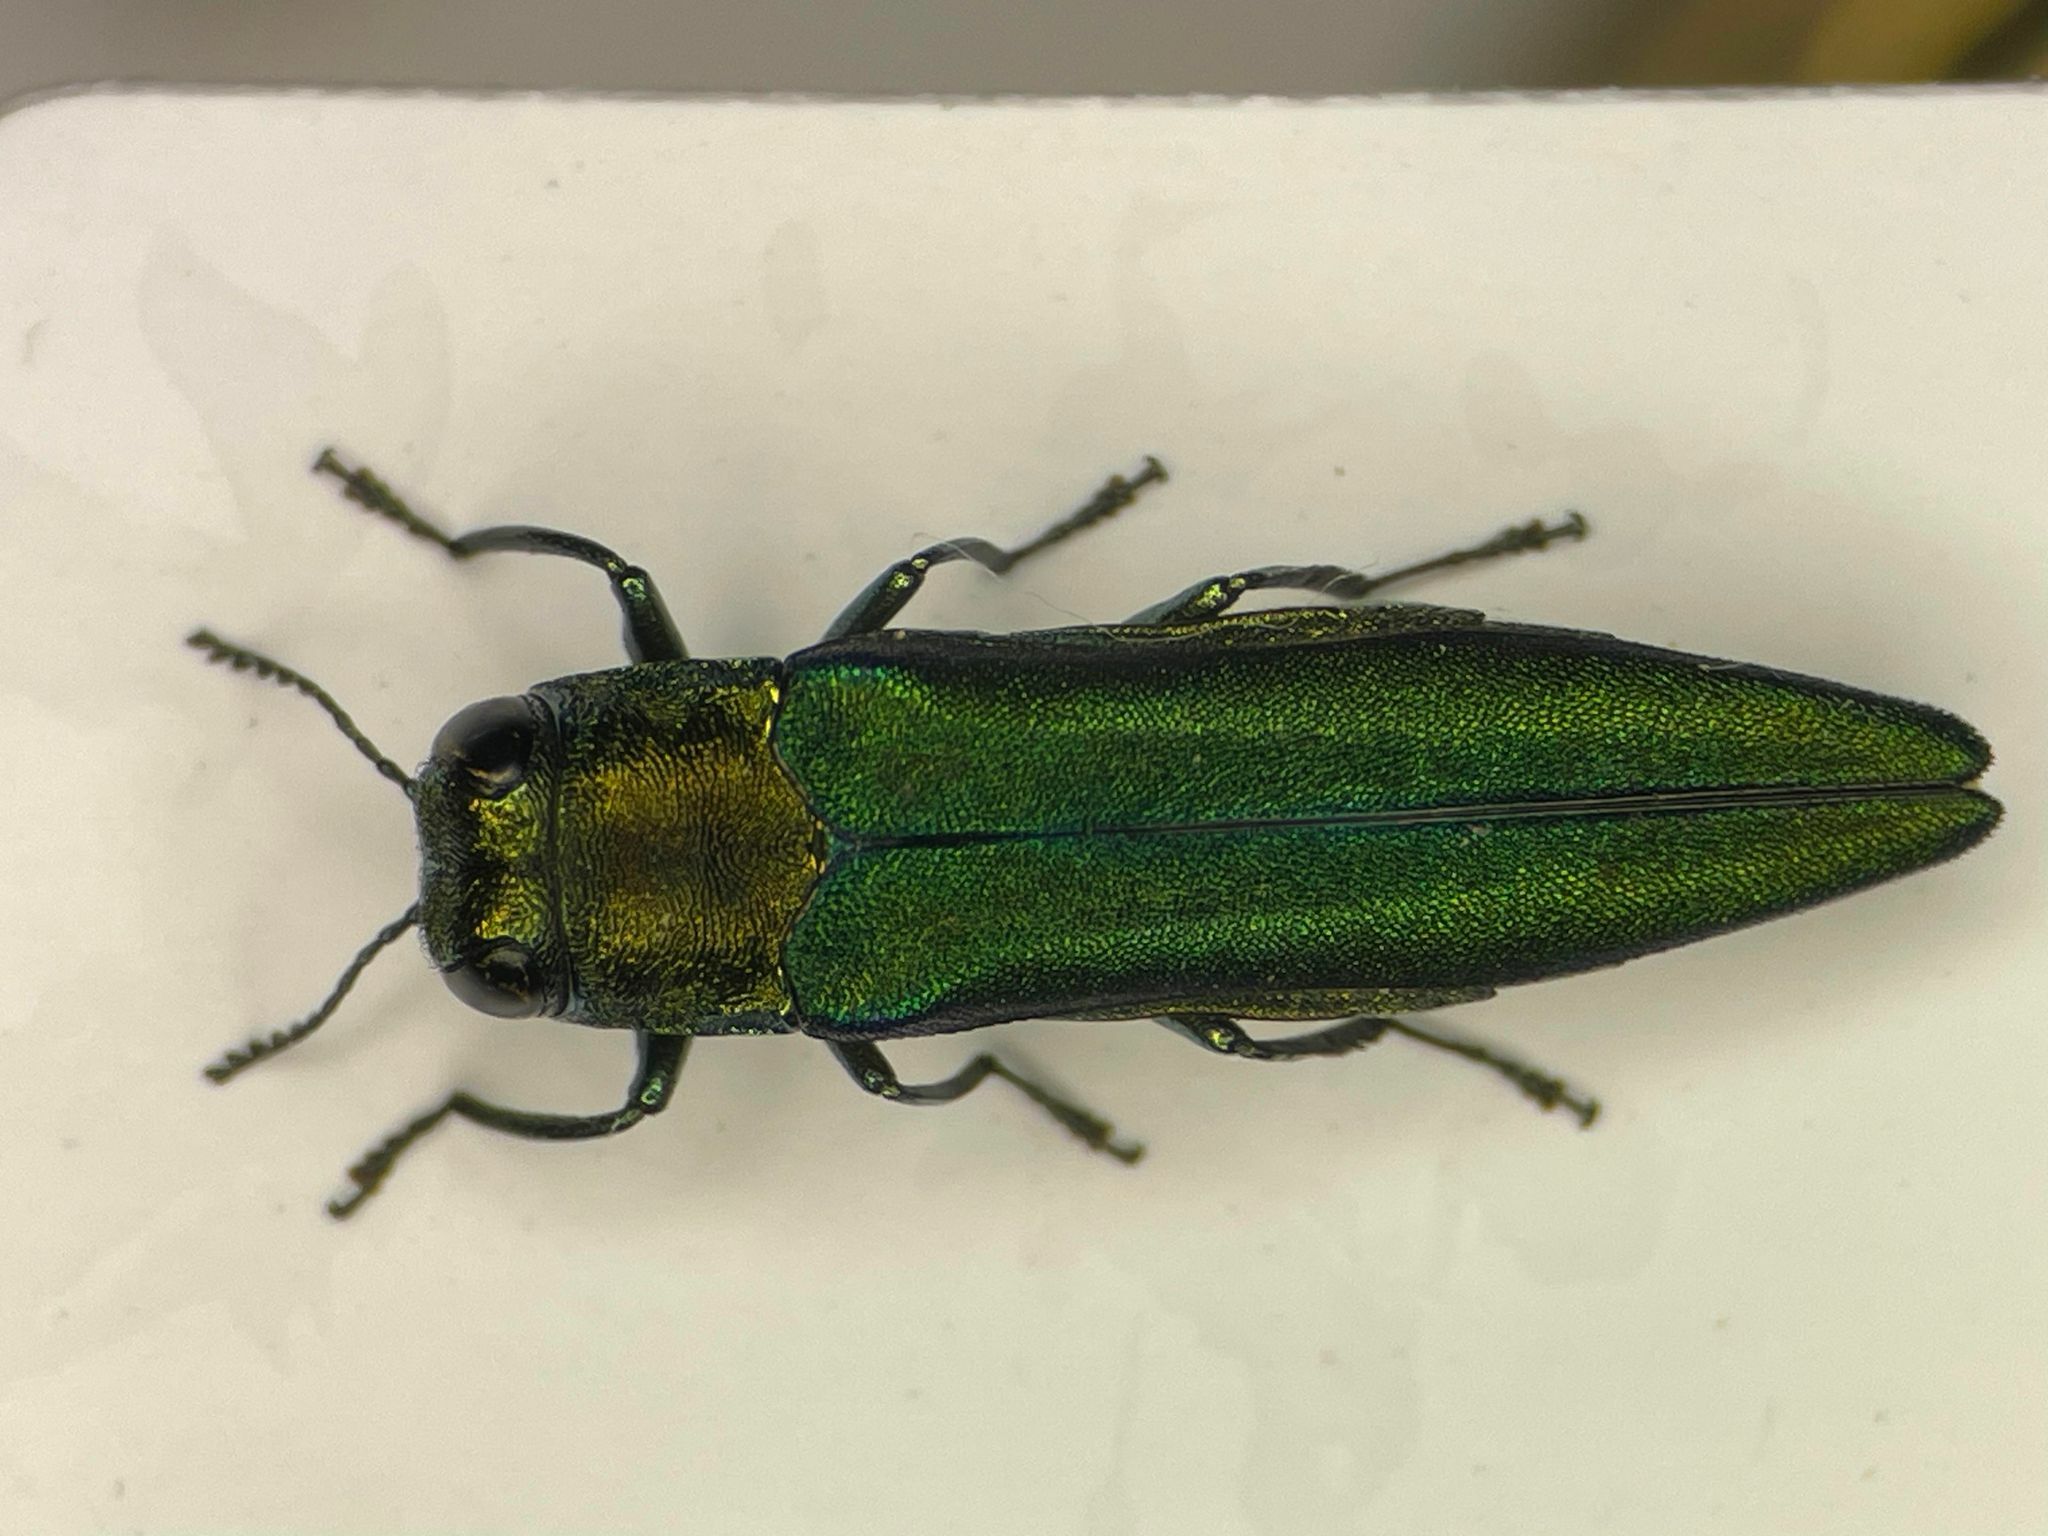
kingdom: Animalia
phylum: Arthropoda
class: Insecta
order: Coleoptera
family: Buprestidae
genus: Agrilus
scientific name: Agrilus planipennis
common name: Emerald ash borer
